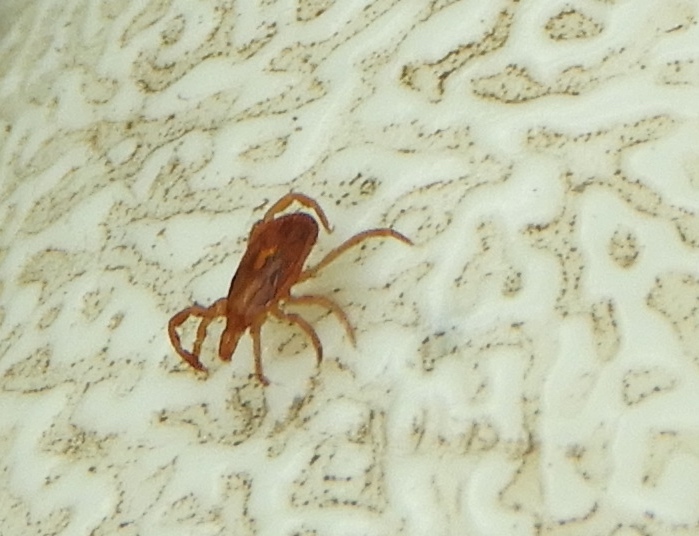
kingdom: Animalia
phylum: Arthropoda
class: Arachnida
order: Ixodida
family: Ixodidae
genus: Amblyomma
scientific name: Amblyomma cajennense
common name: Cayenne tick
